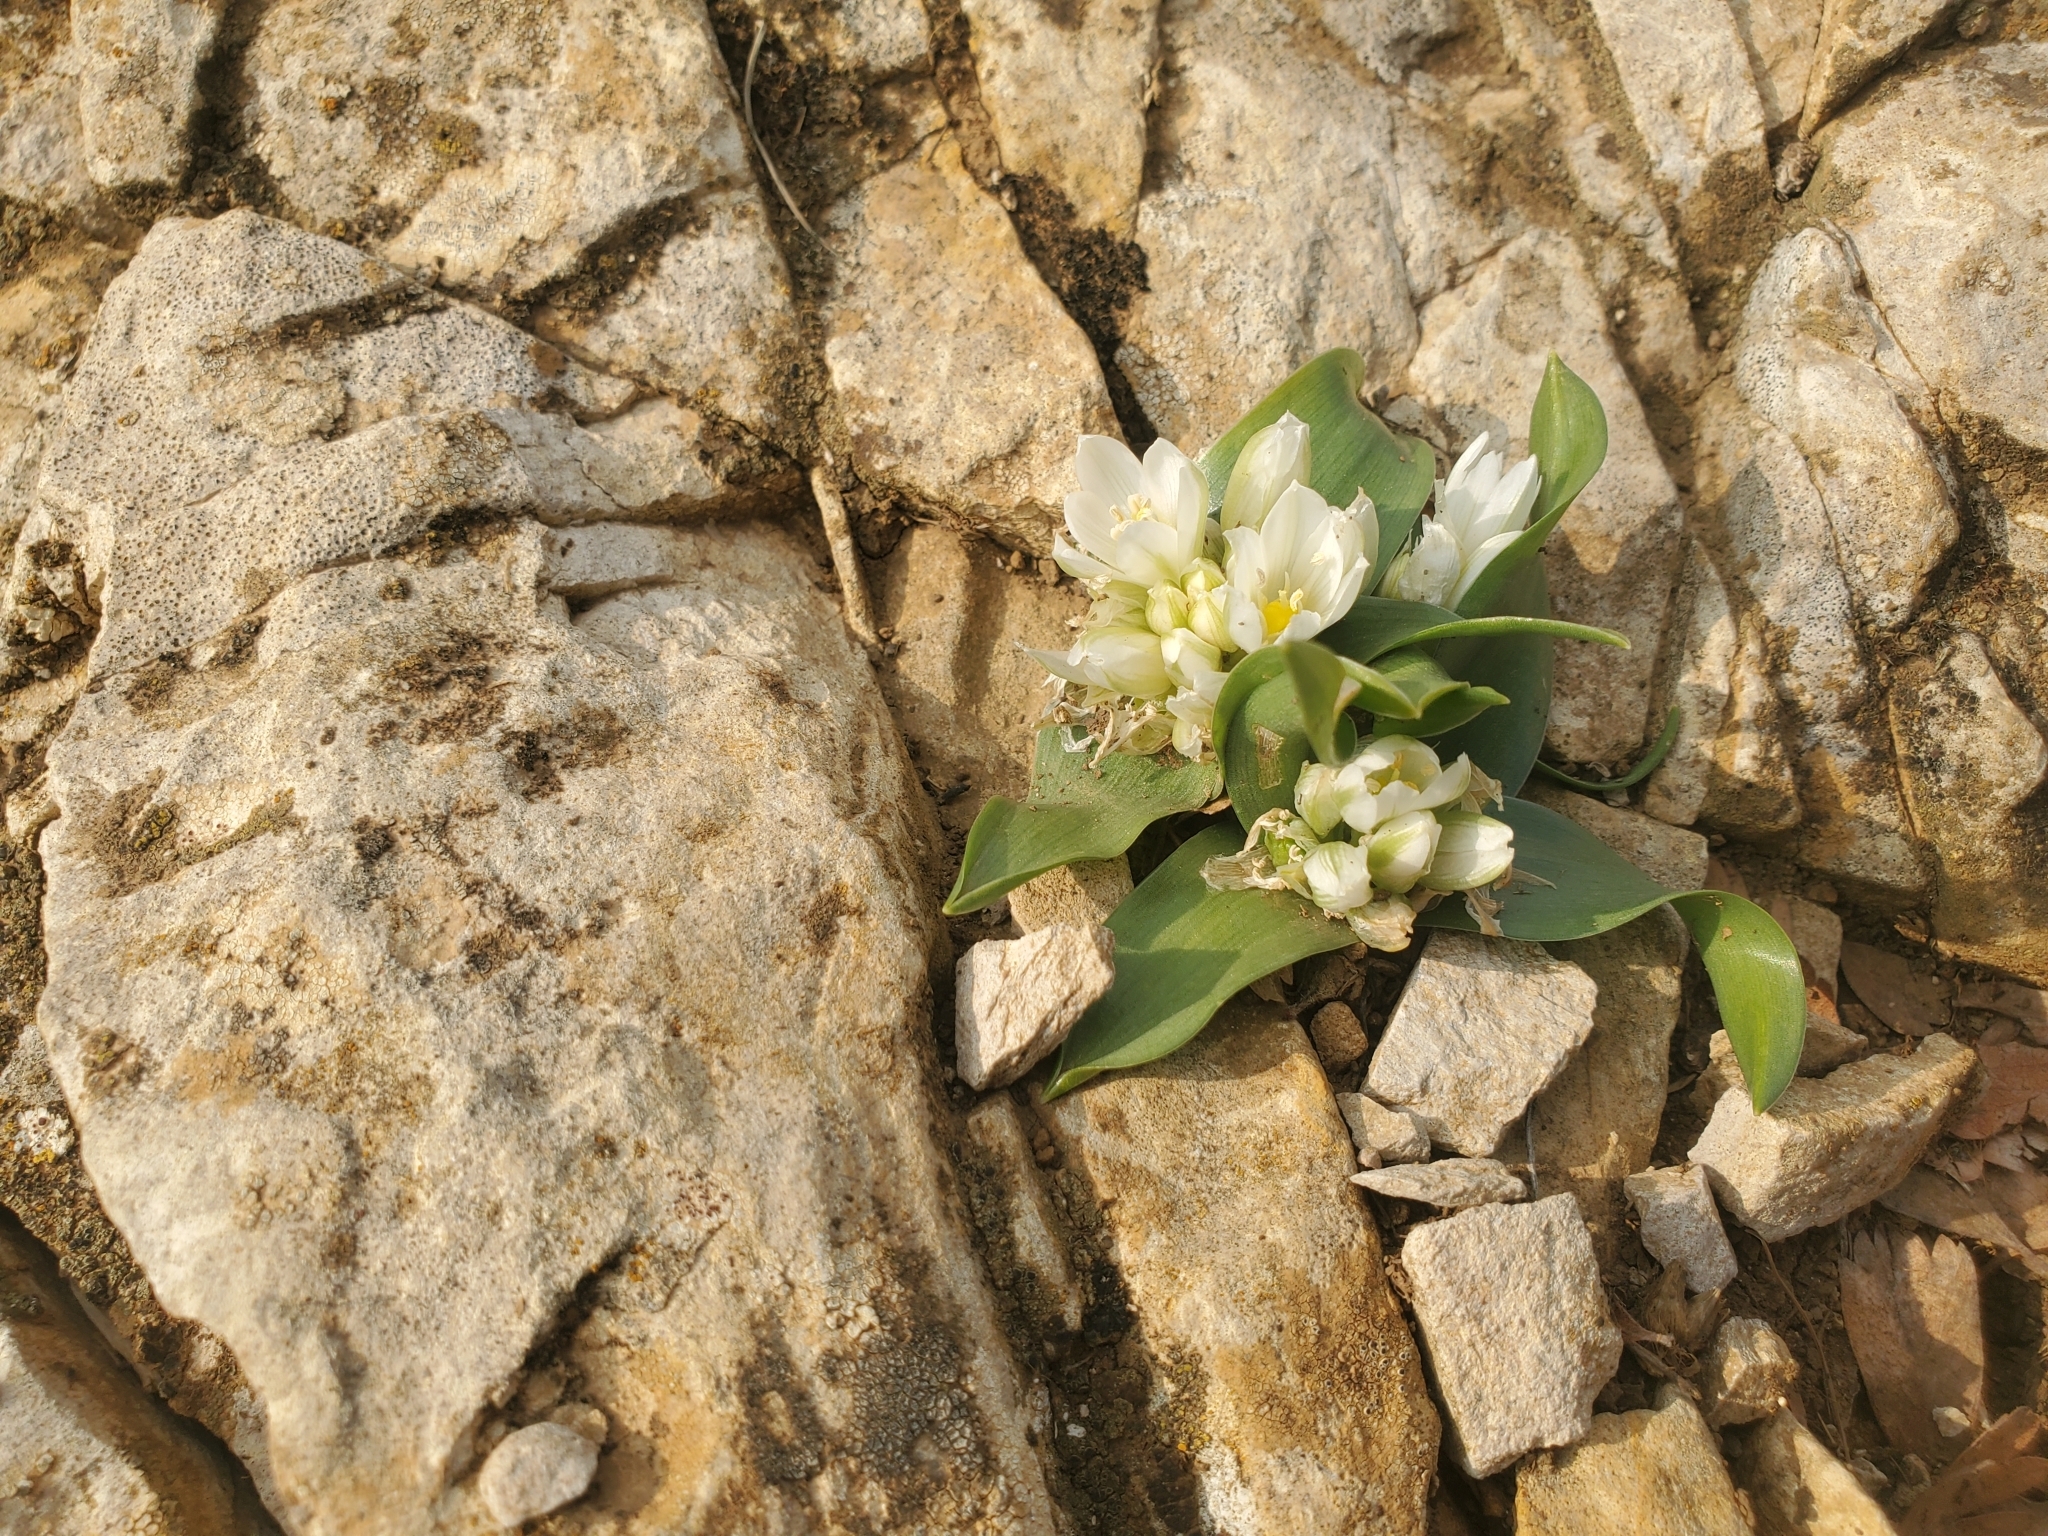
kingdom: Plantae
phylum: Tracheophyta
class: Liliopsida
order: Asparagales
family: Asparagaceae
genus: Ornithogalum
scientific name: Ornithogalum lanceolatum
